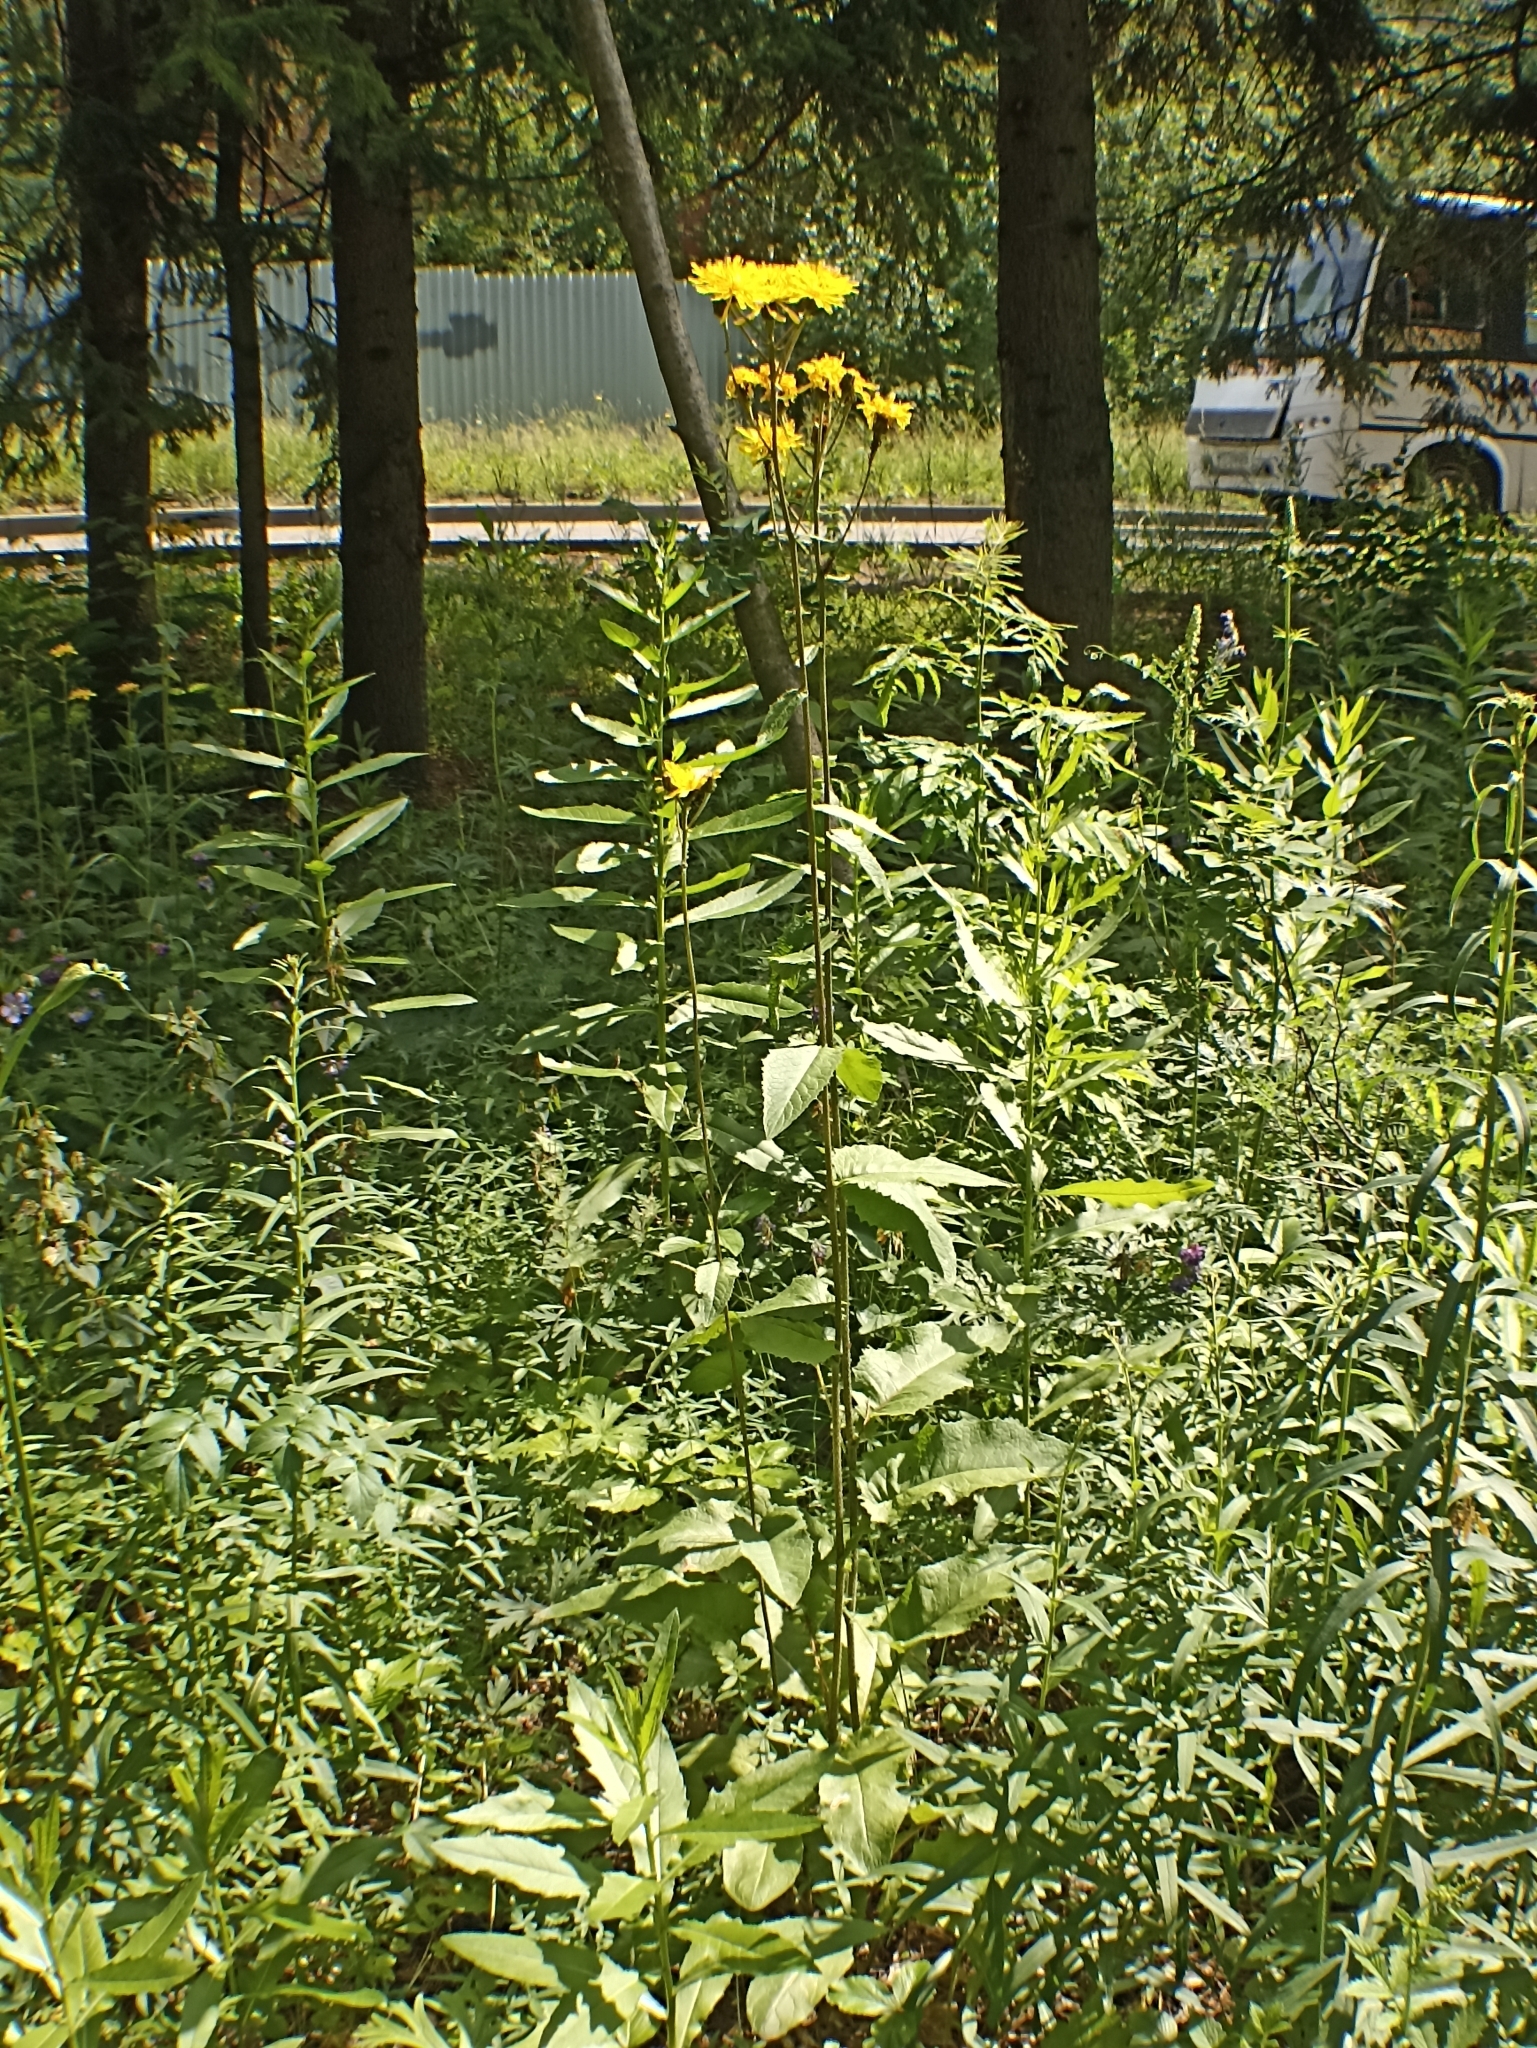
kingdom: Plantae
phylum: Tracheophyta
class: Magnoliopsida
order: Asterales
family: Asteraceae
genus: Crepis
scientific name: Crepis sibirica
